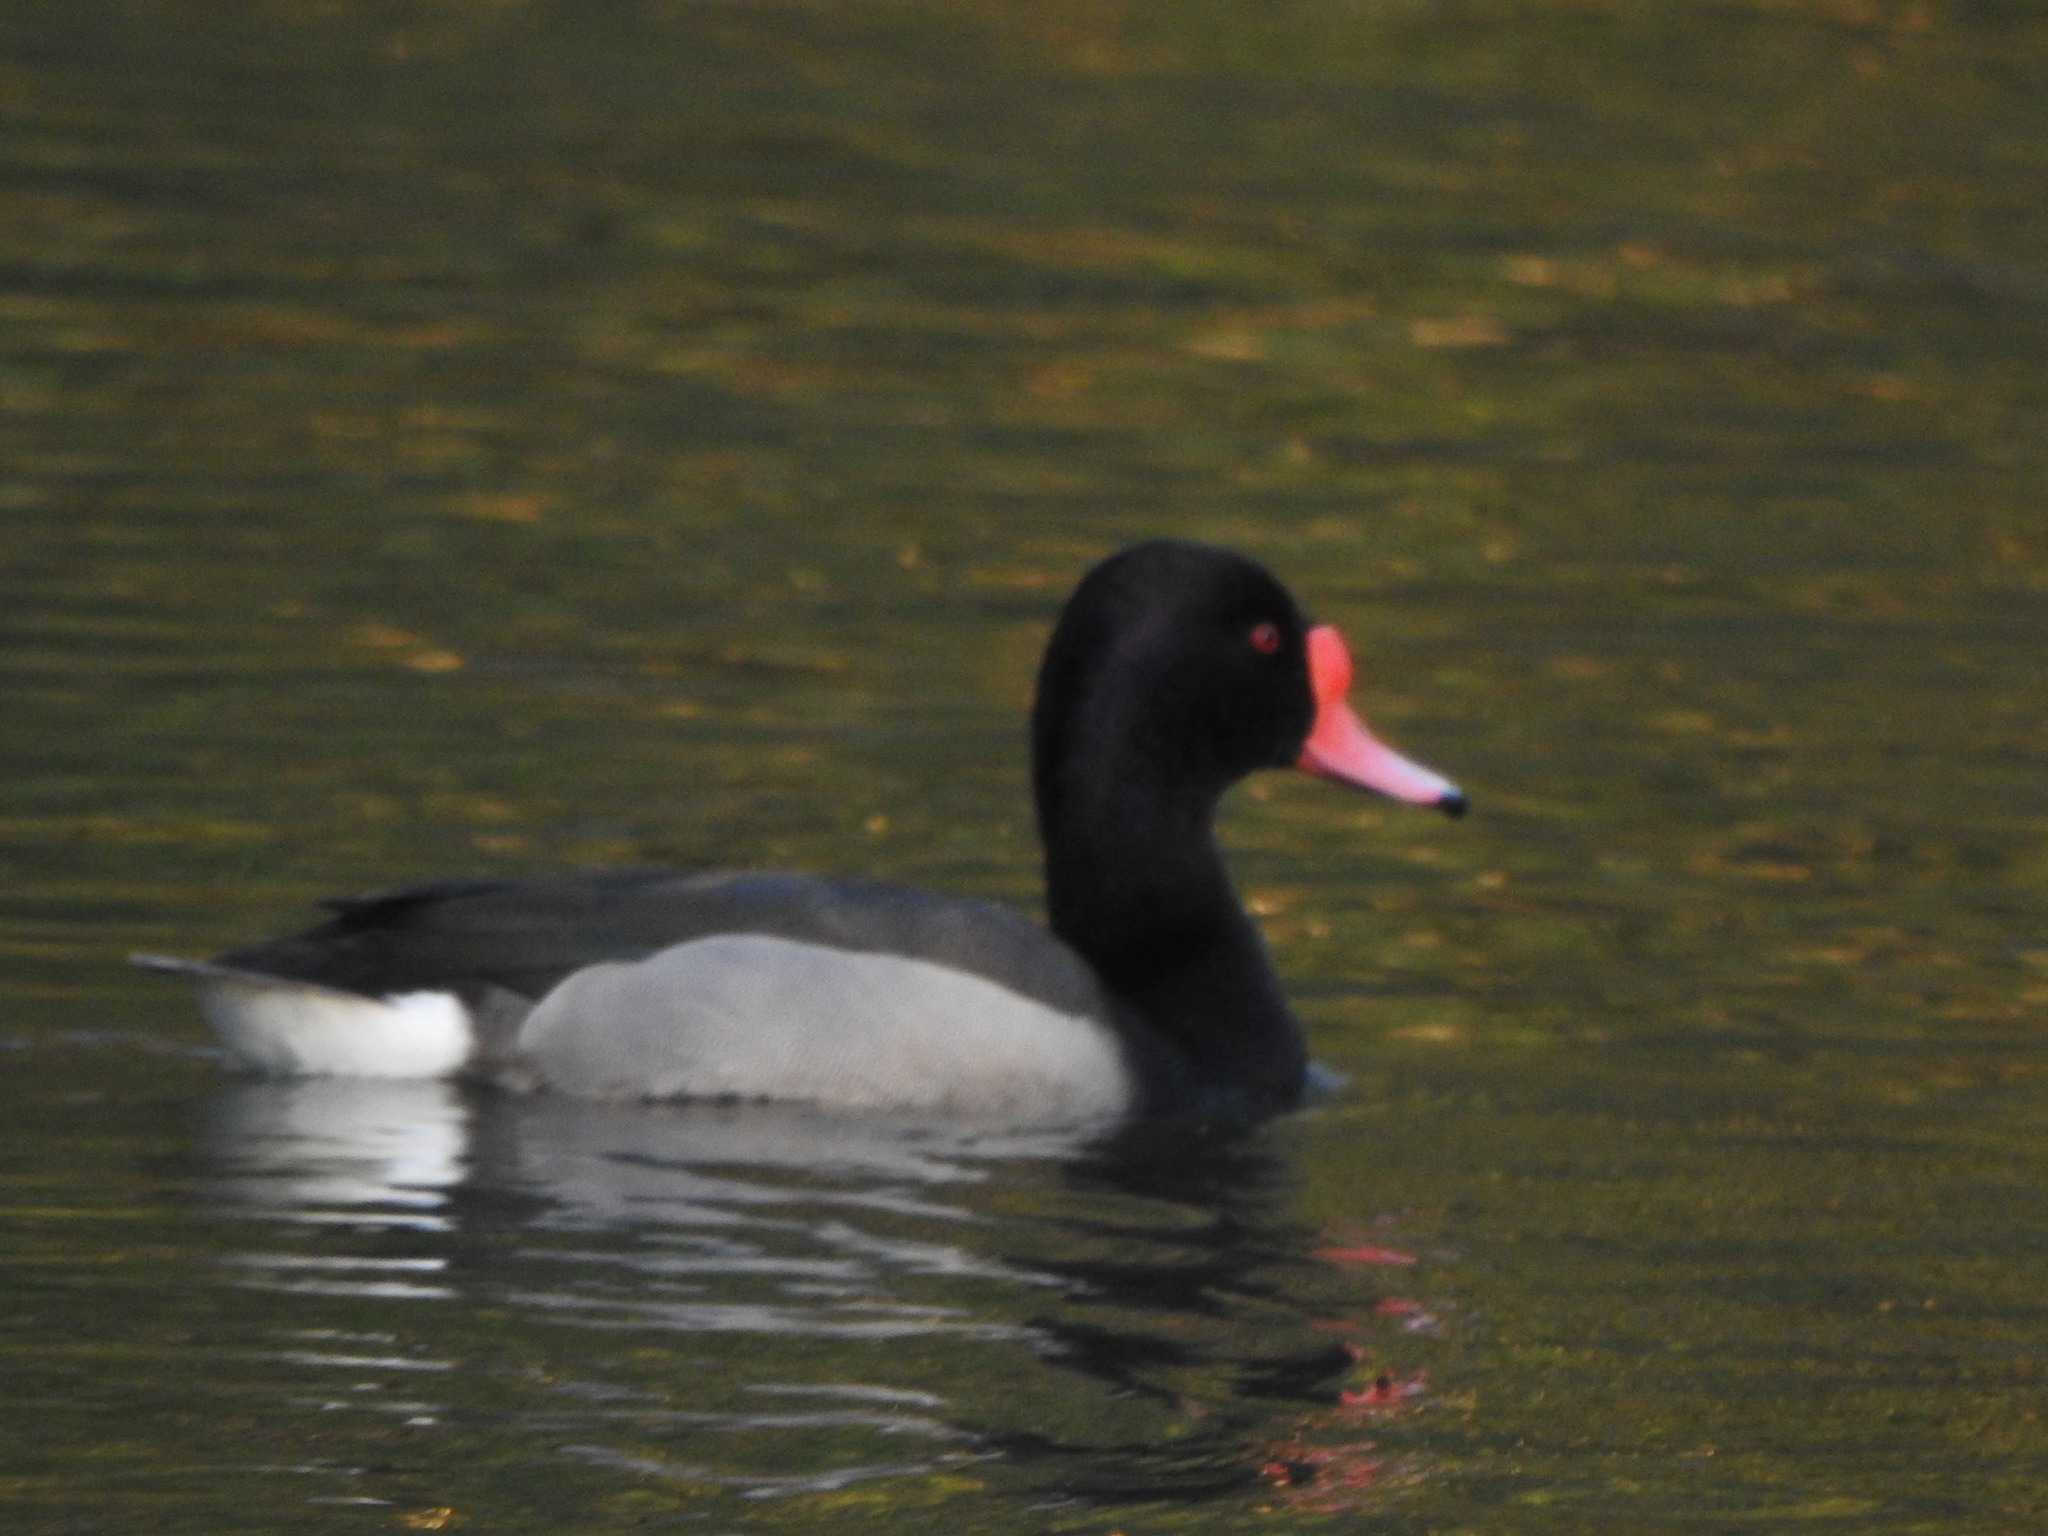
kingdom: Animalia
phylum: Chordata
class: Aves
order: Anseriformes
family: Anatidae
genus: Netta
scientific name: Netta peposaca
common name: Rosy-billed pochard
